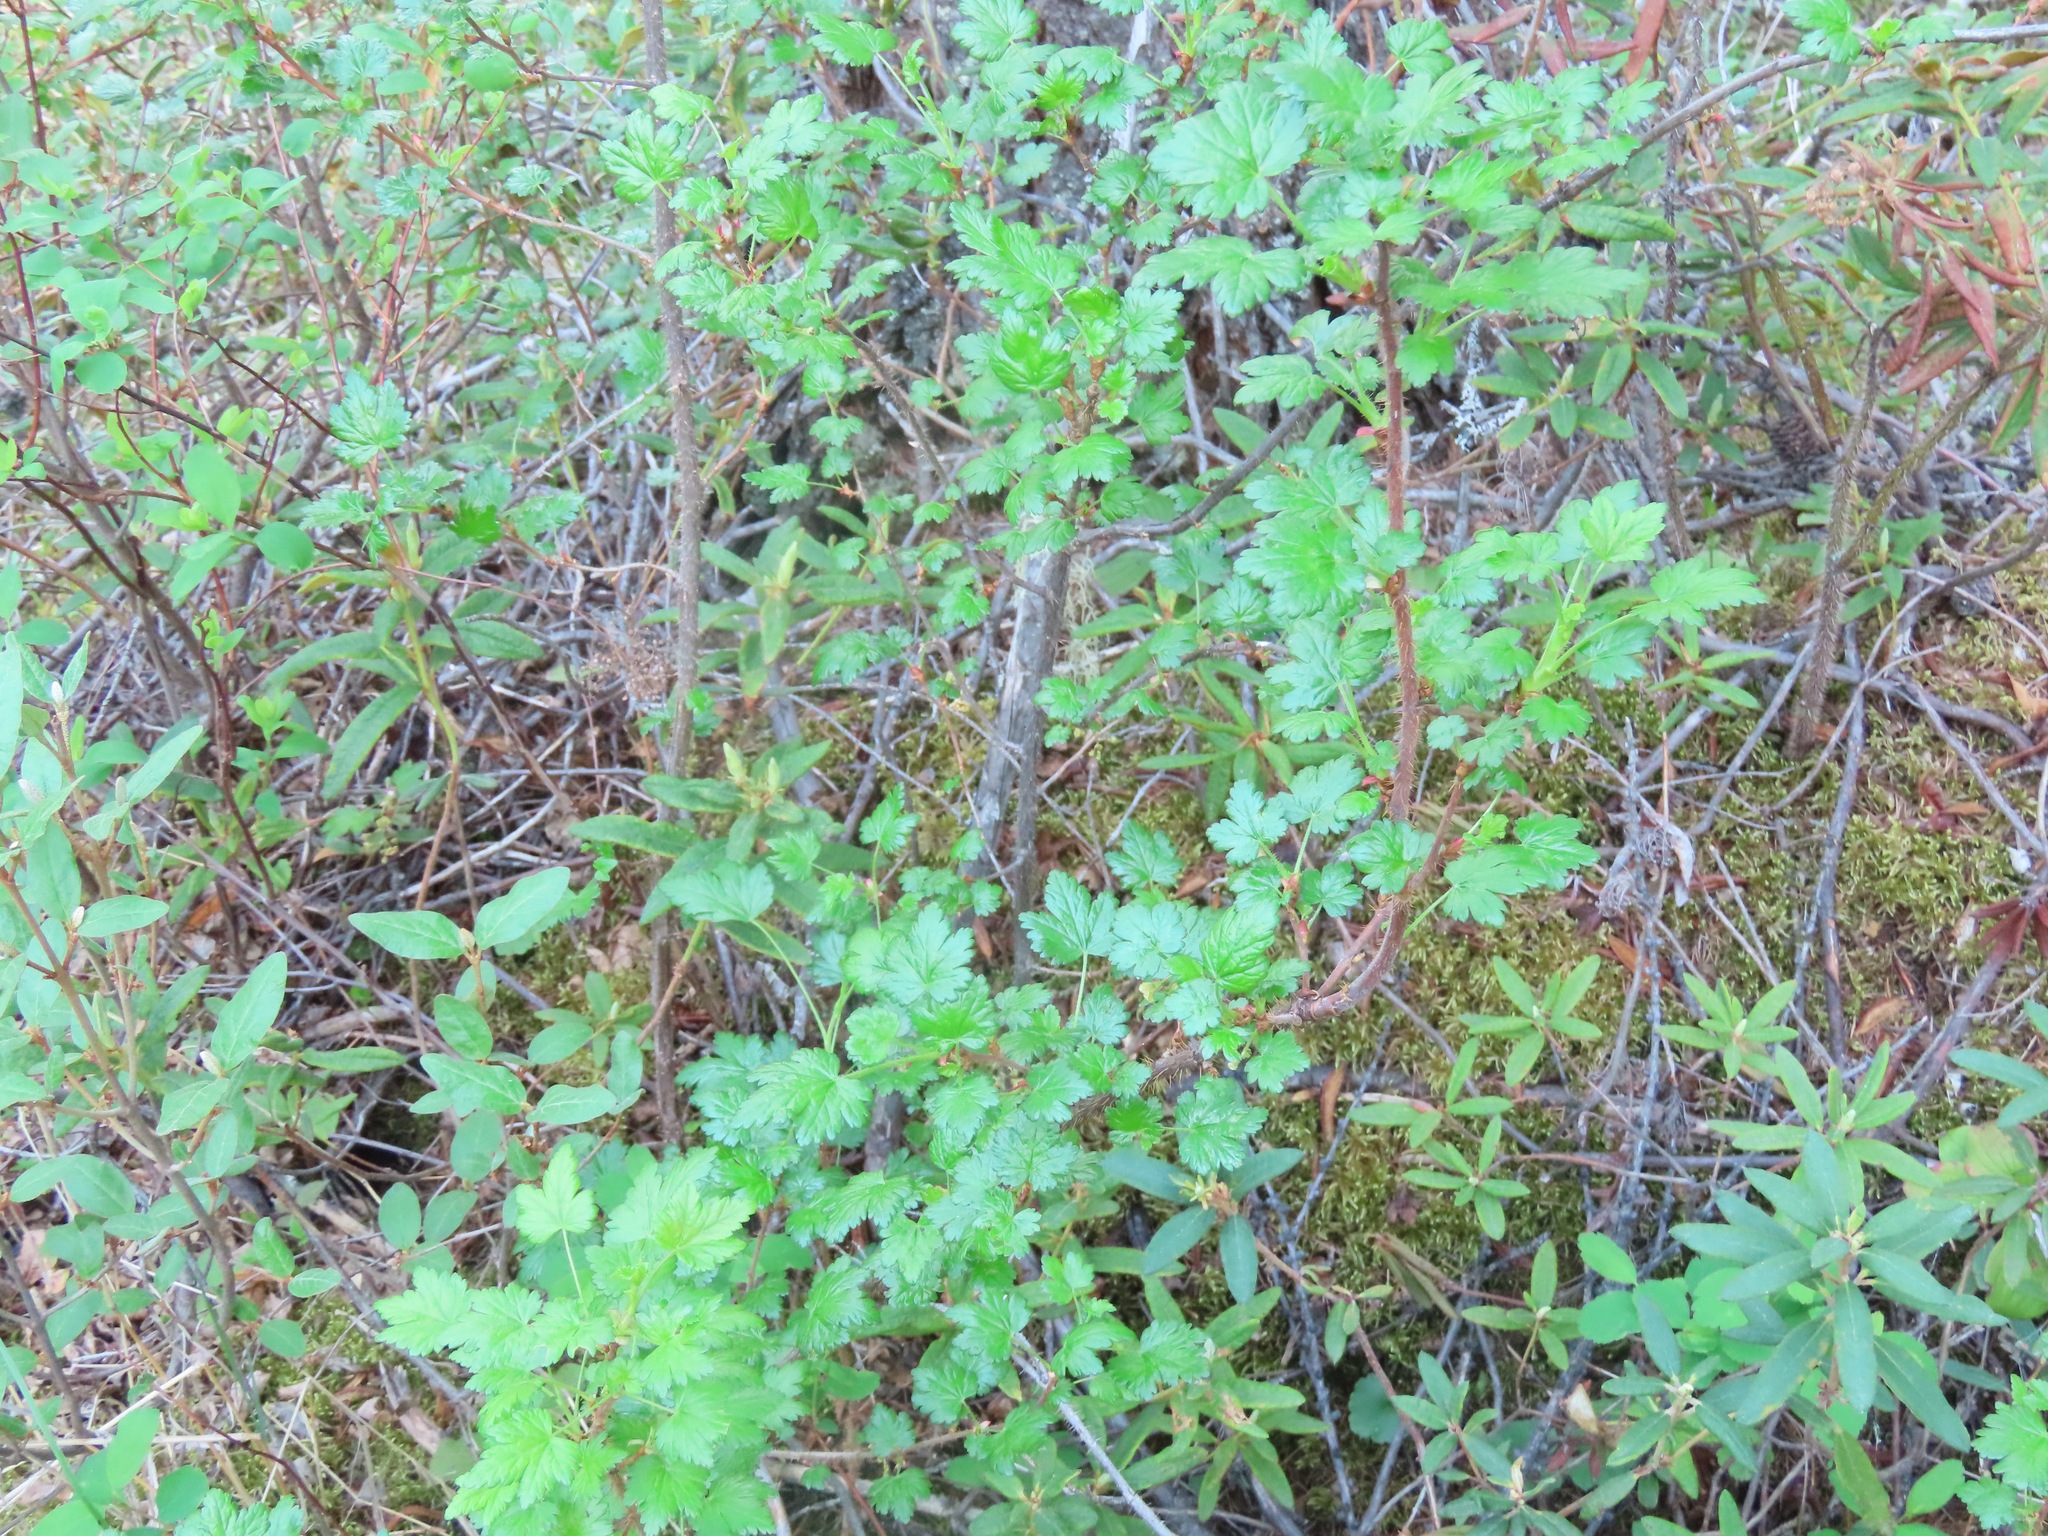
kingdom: Plantae
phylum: Tracheophyta
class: Magnoliopsida
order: Saxifragales
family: Grossulariaceae
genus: Ribes
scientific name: Ribes lacustre
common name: Black gooseberry
